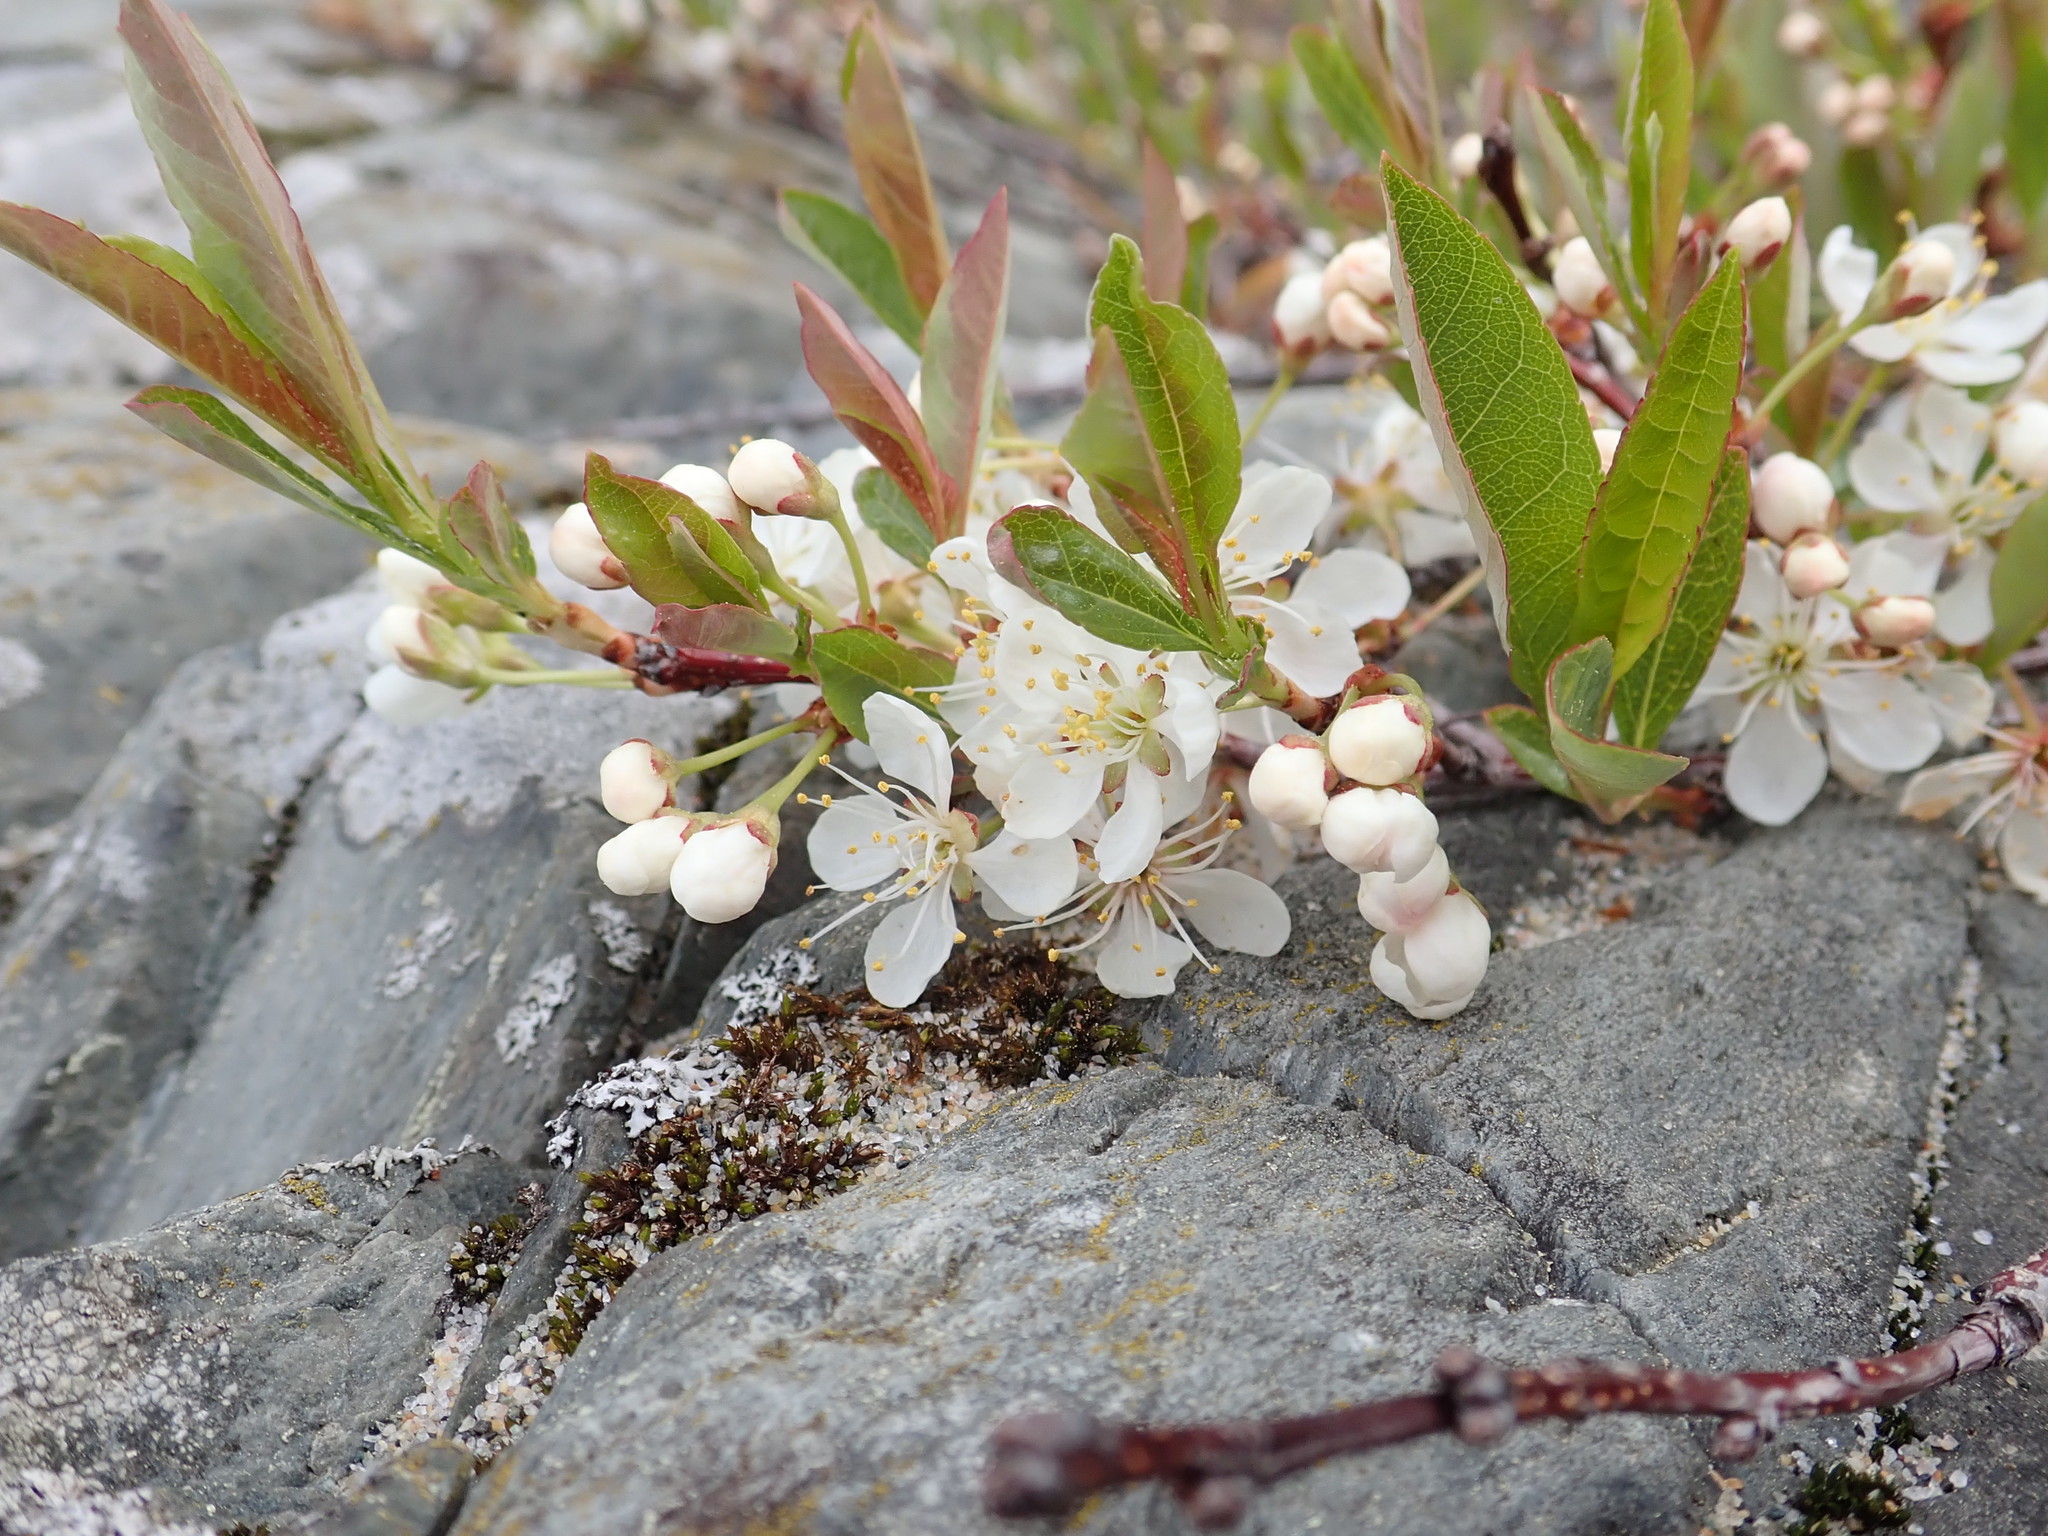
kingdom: Plantae
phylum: Tracheophyta
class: Magnoliopsida
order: Rosales
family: Rosaceae
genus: Prunus
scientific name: Prunus pumila
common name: Dwarf cherry
